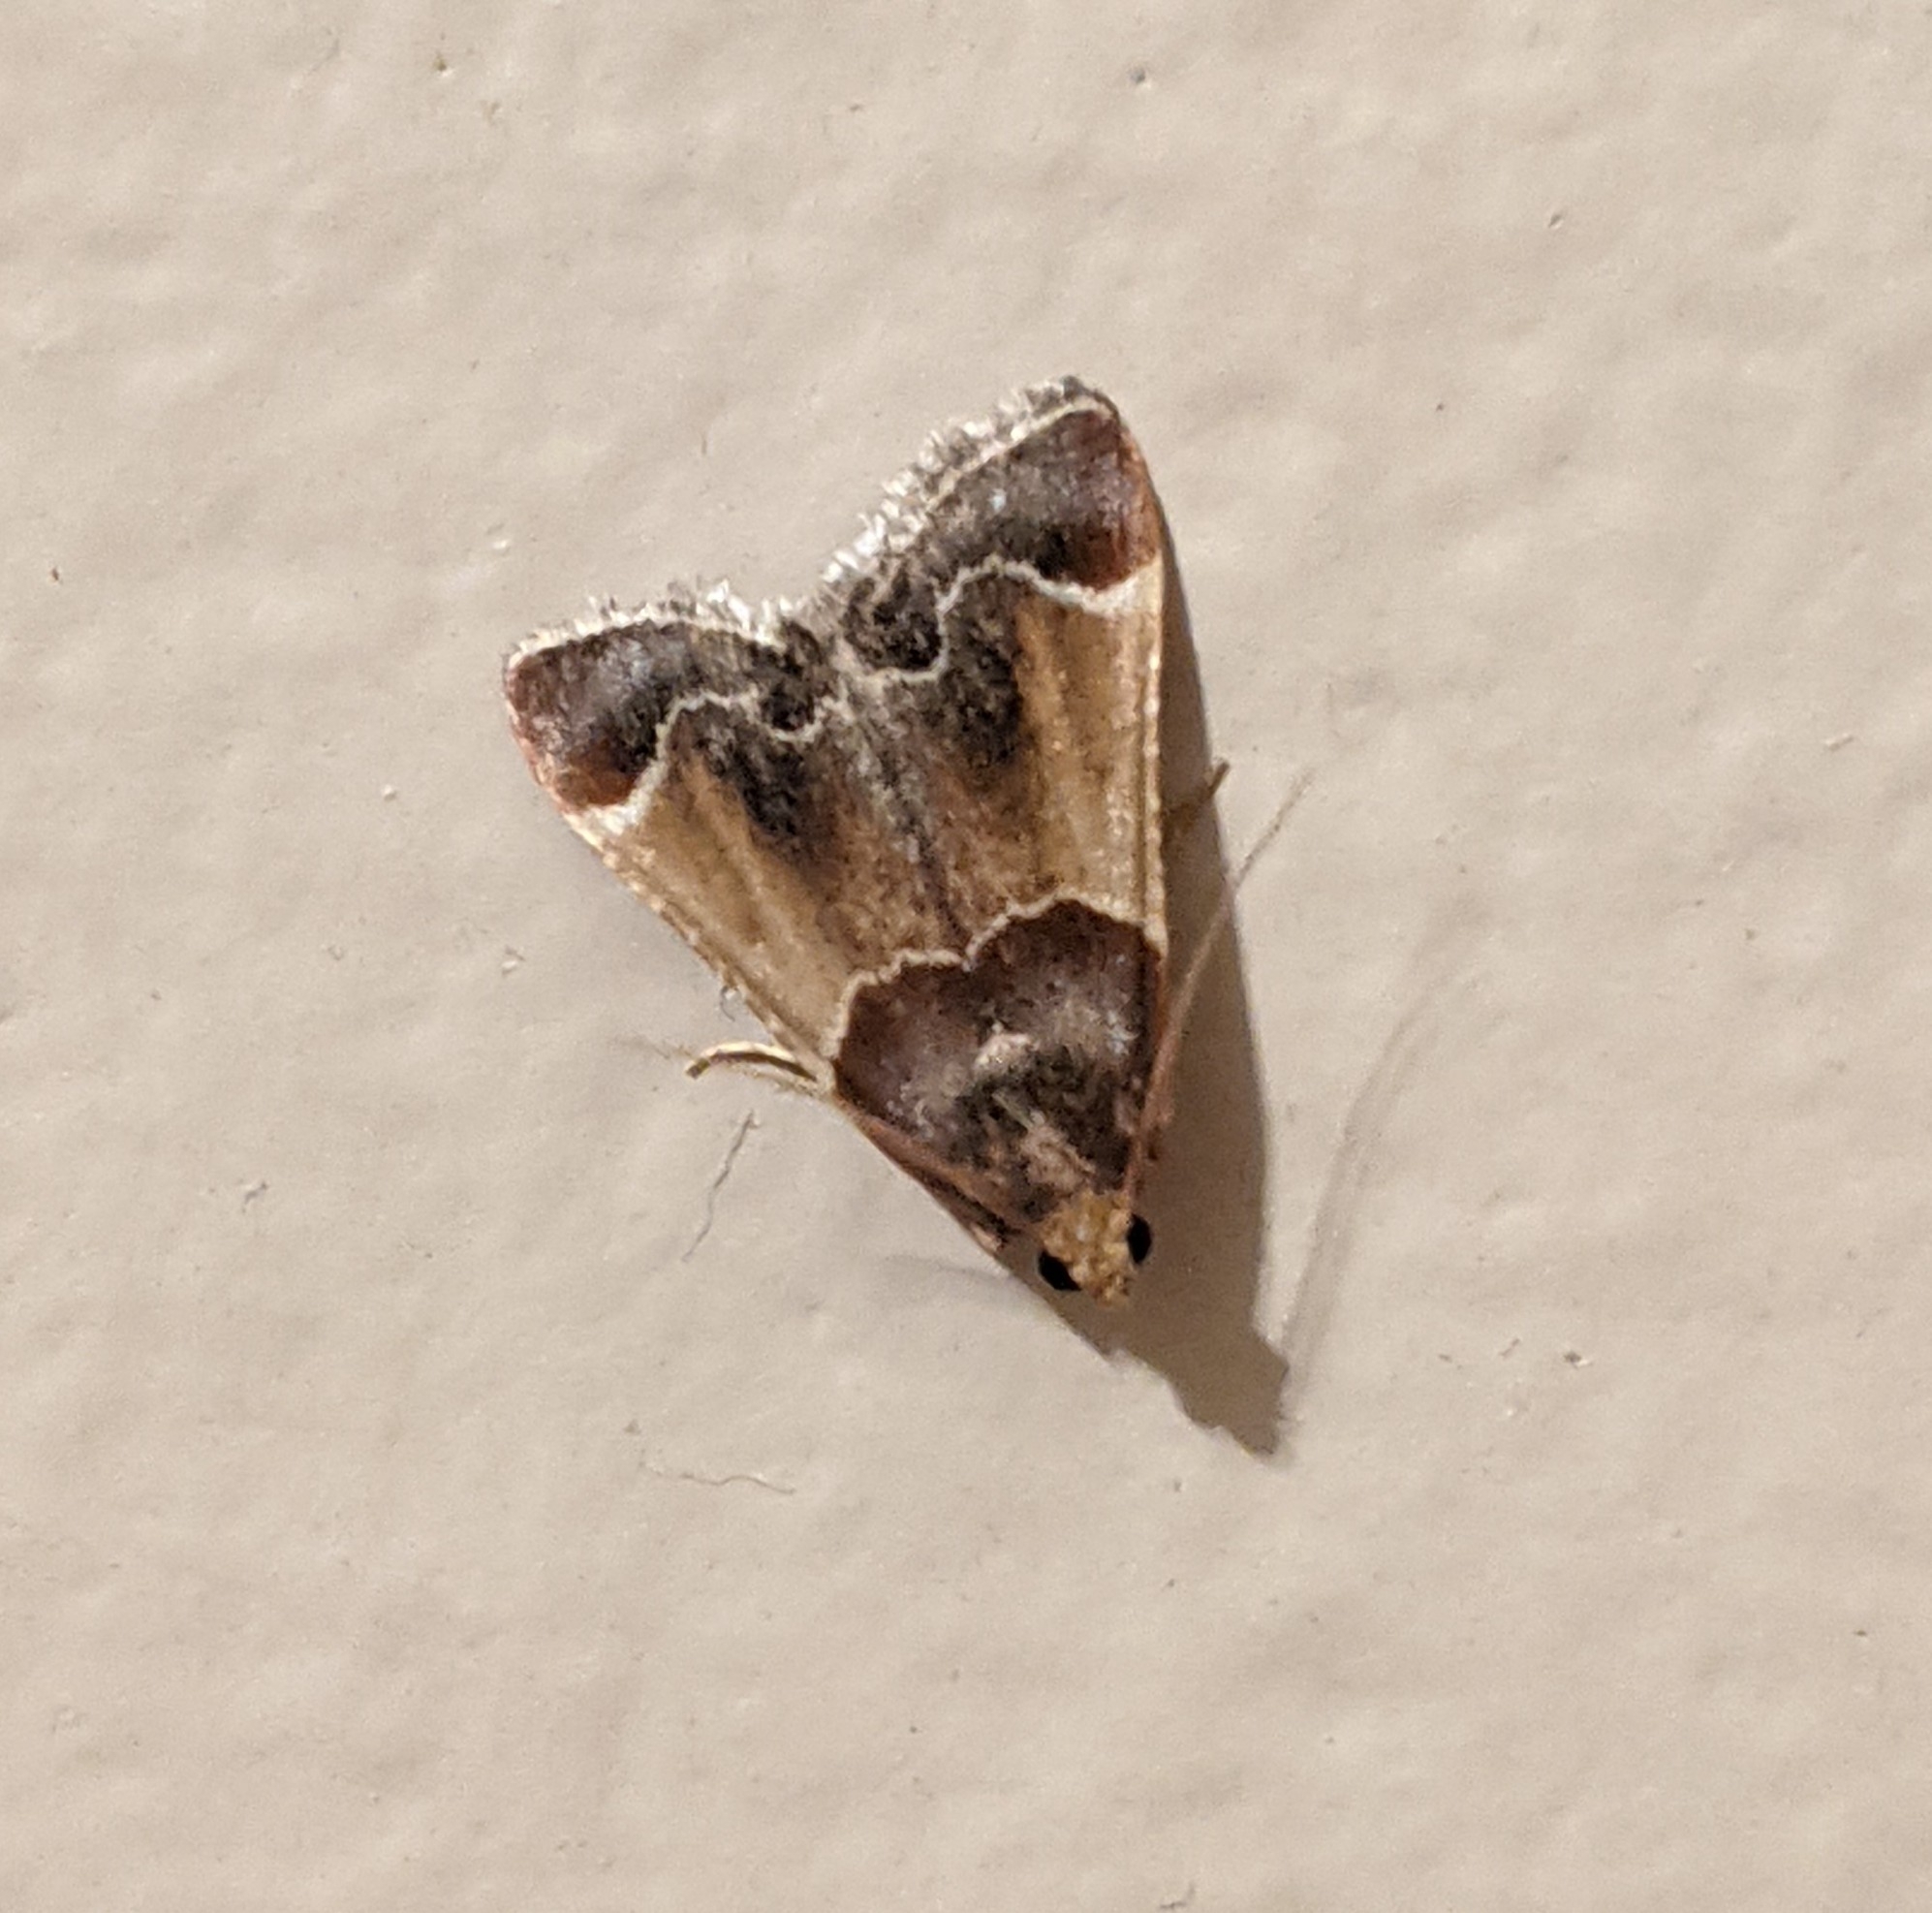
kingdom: Animalia
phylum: Arthropoda
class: Insecta
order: Lepidoptera
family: Pyralidae
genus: Pyralis
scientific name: Pyralis farinalis
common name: Meal moth
